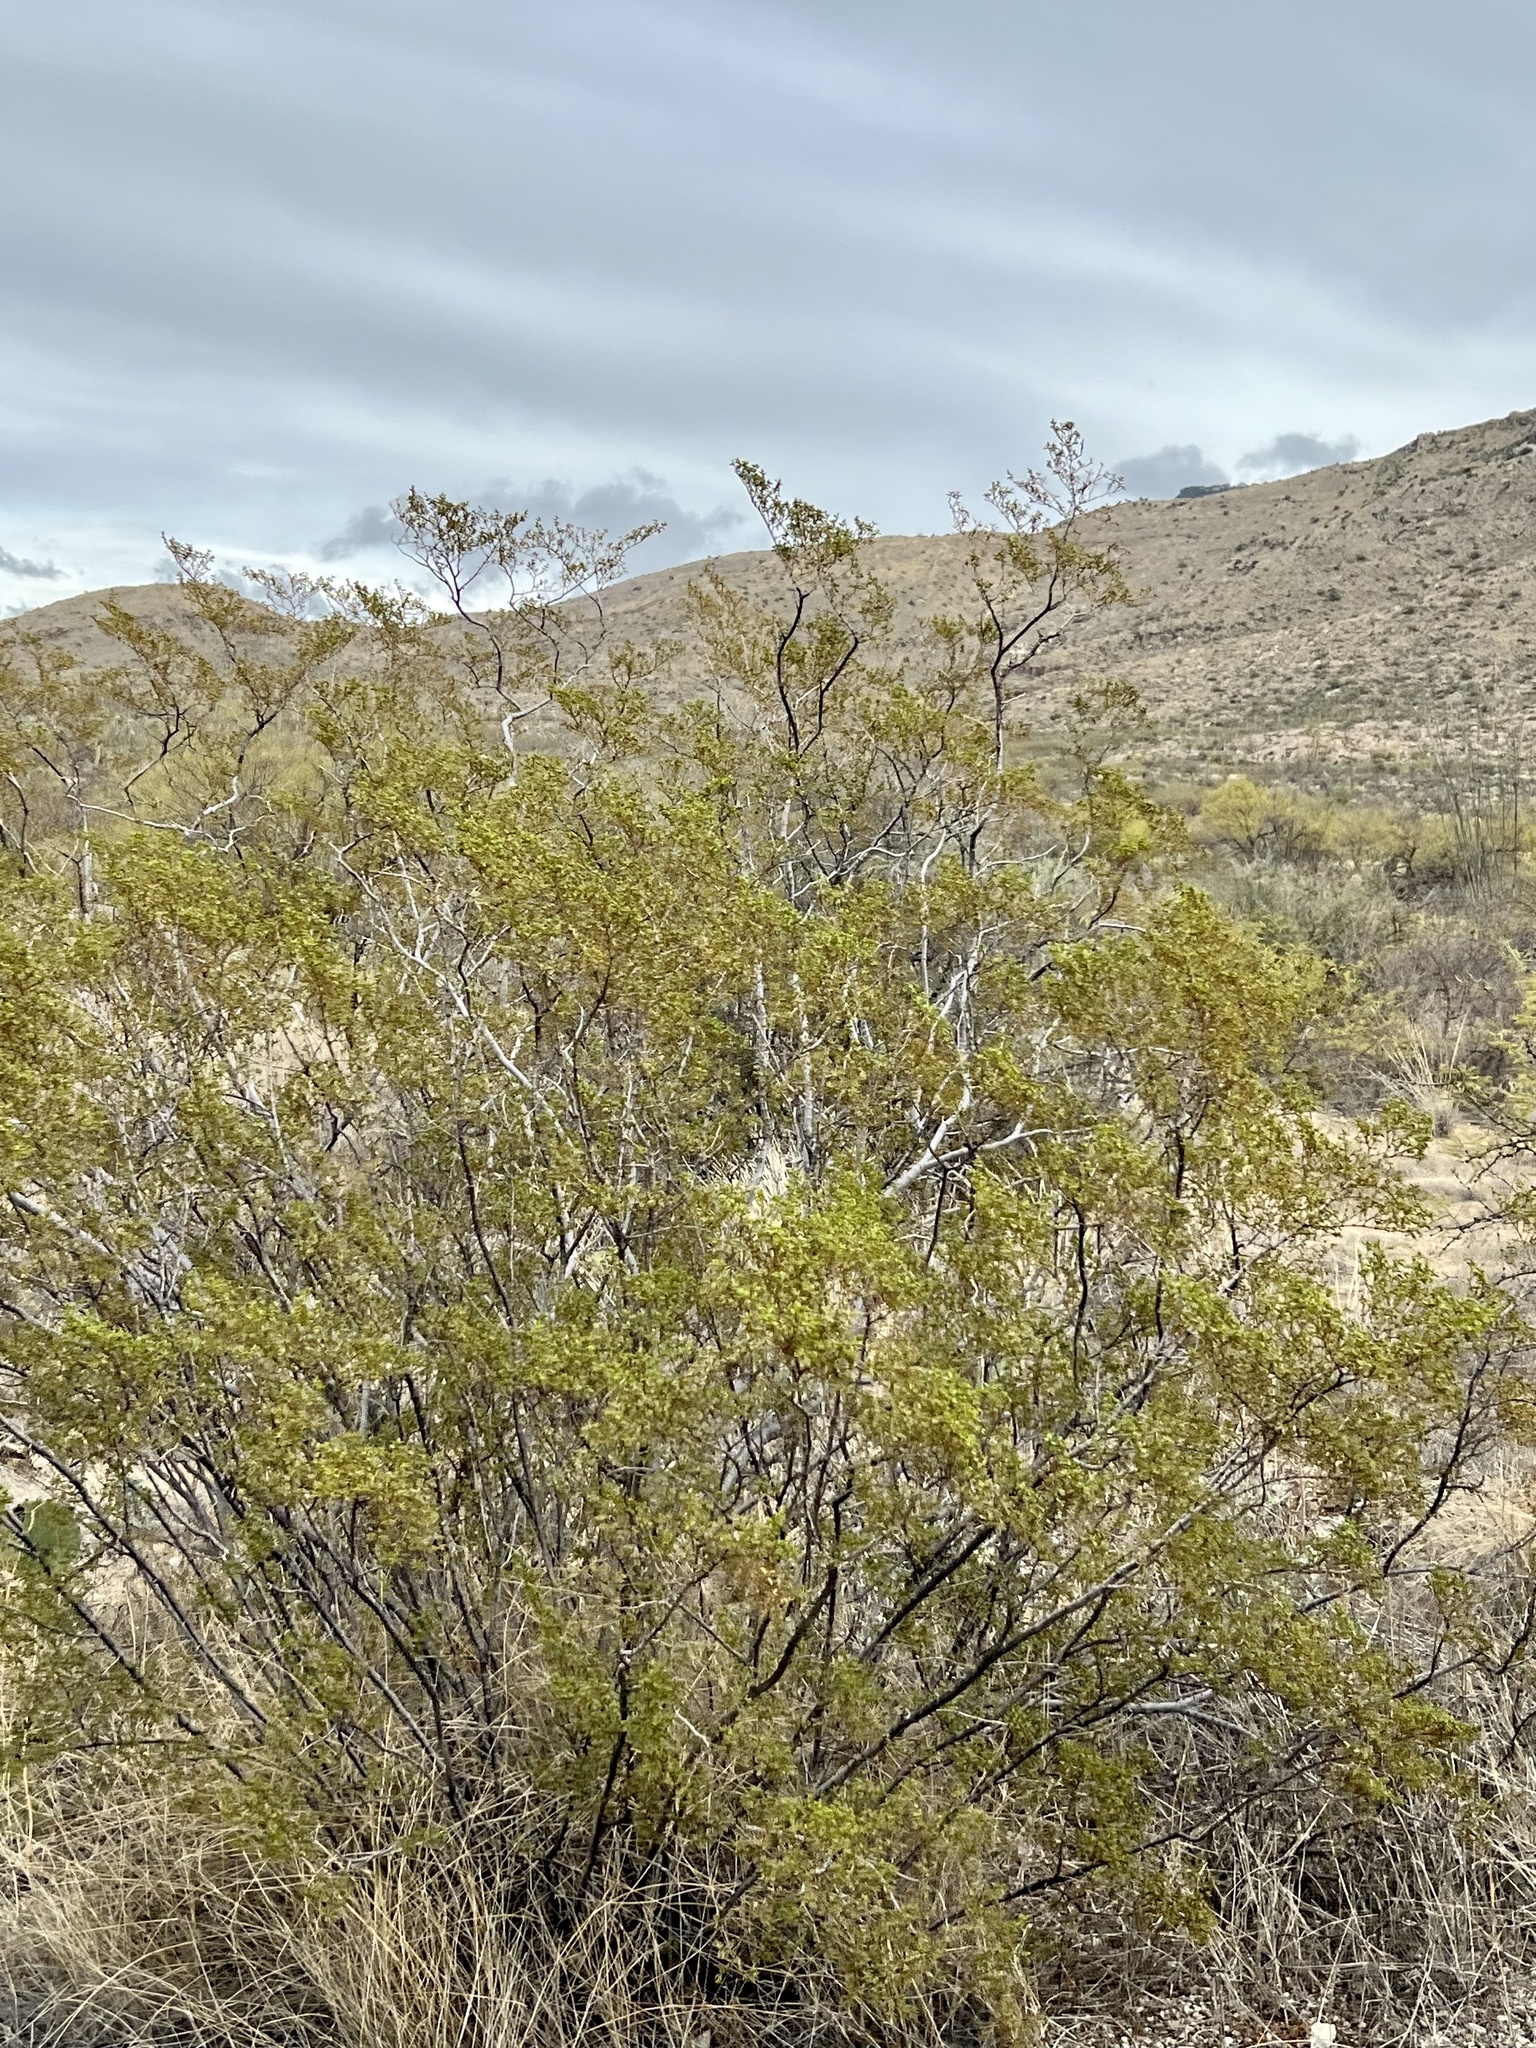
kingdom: Plantae
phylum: Tracheophyta
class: Magnoliopsida
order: Zygophyllales
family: Zygophyllaceae
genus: Larrea
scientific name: Larrea tridentata
